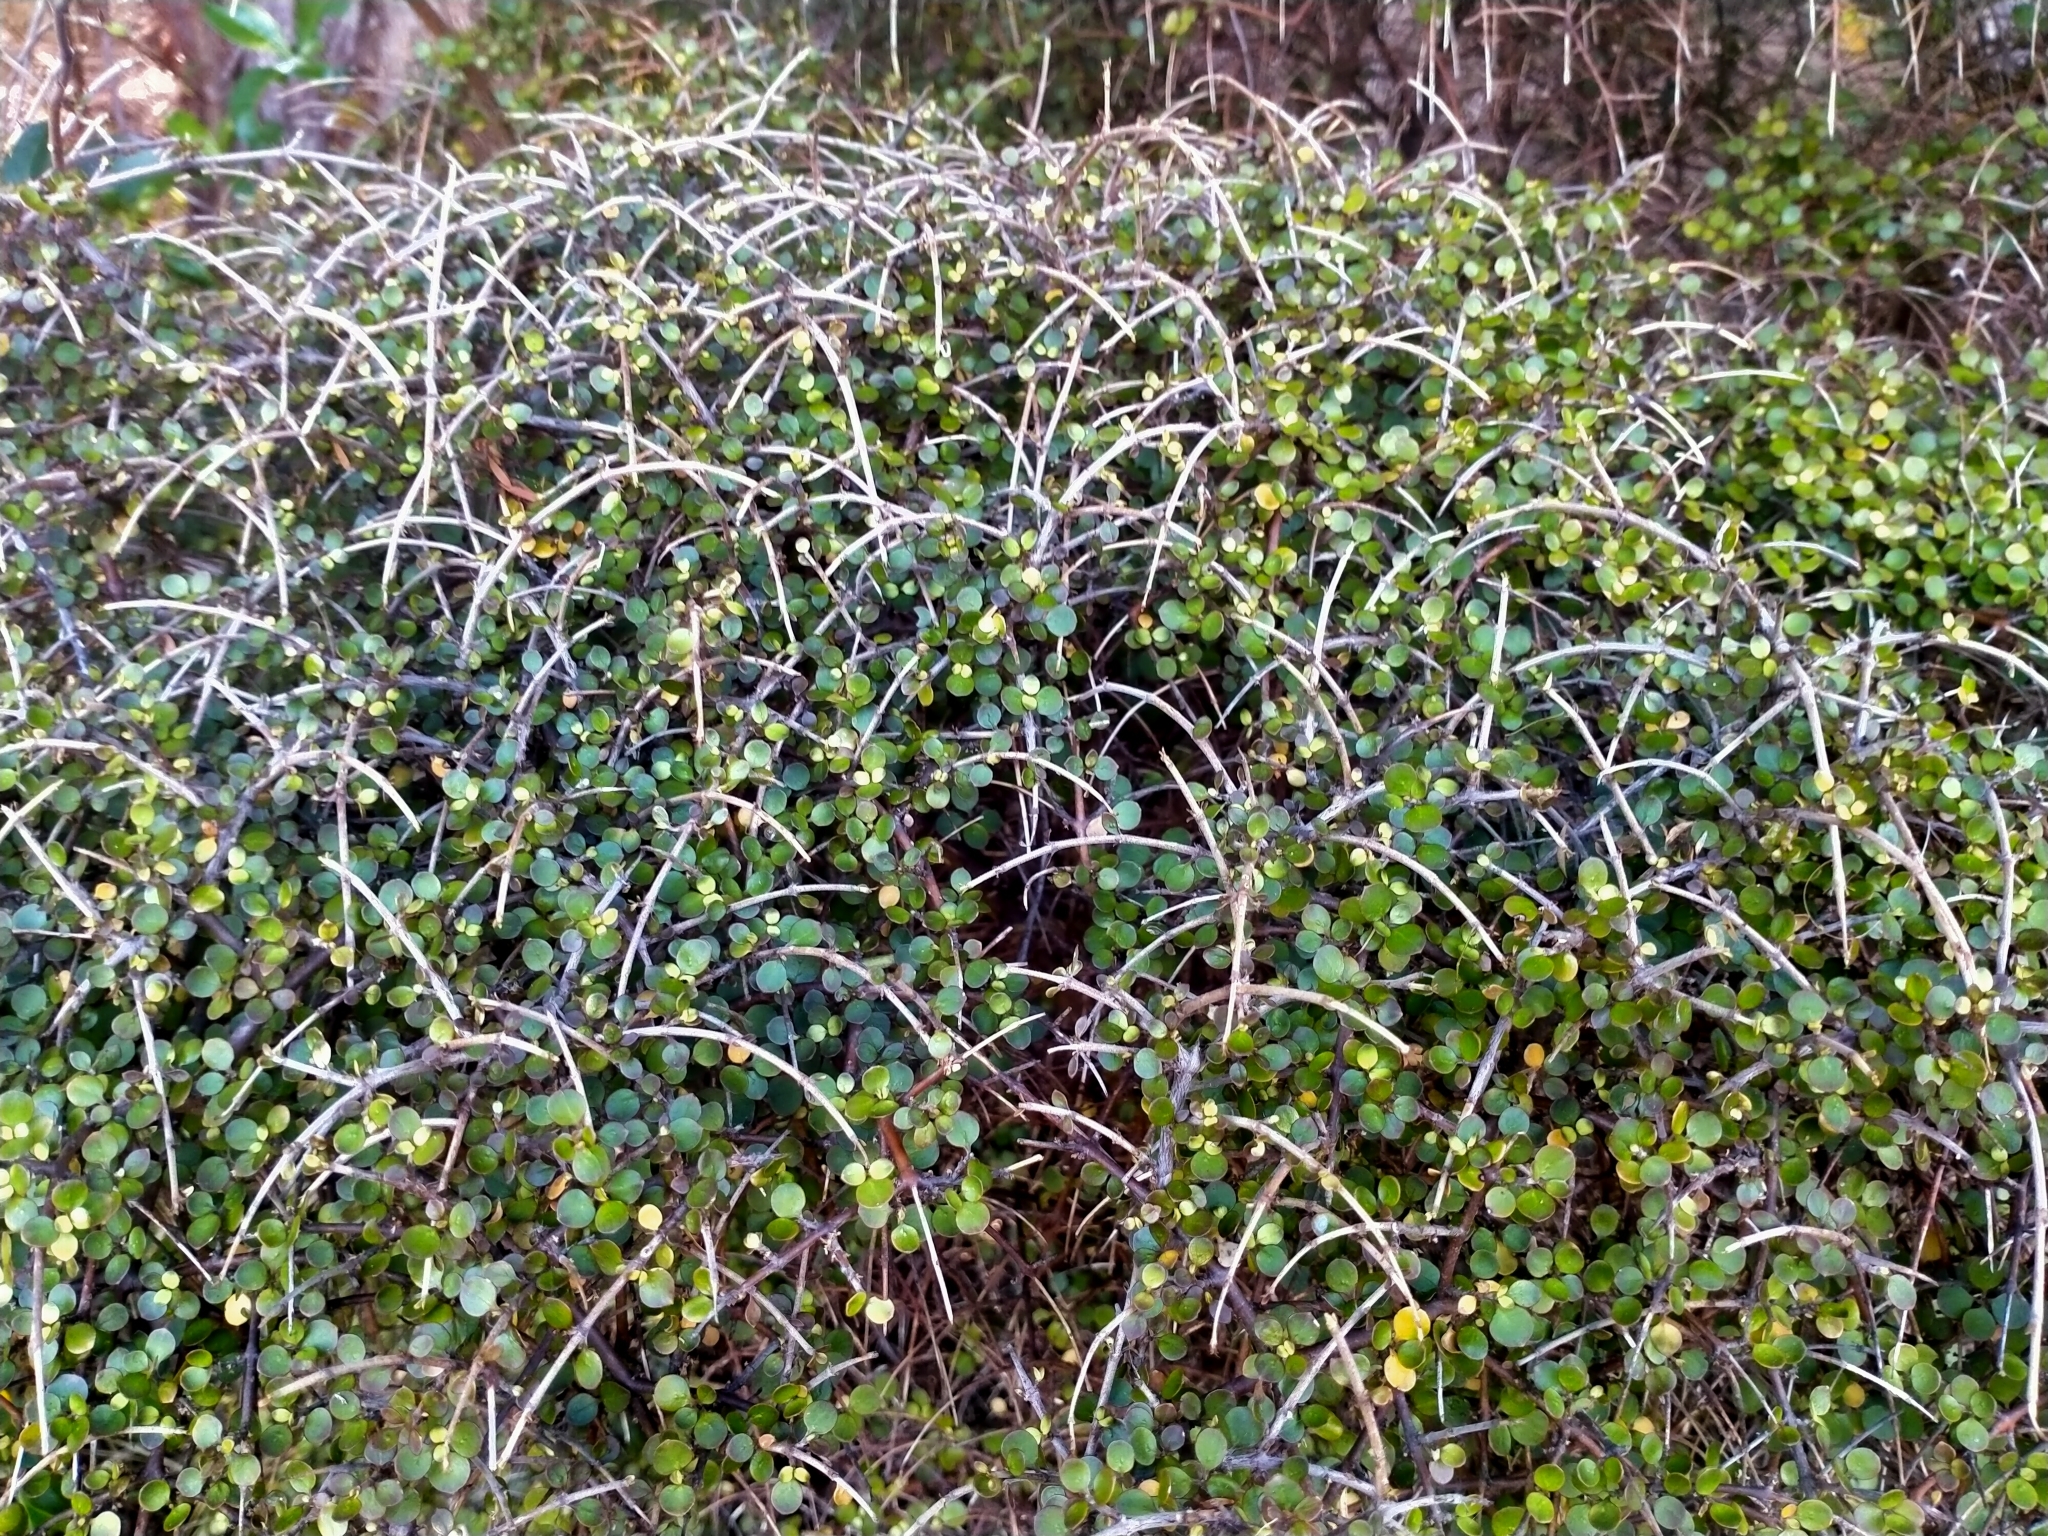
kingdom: Plantae
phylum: Tracheophyta
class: Magnoliopsida
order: Gentianales
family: Rubiaceae
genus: Coprosma
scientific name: Coprosma rhamnoides
